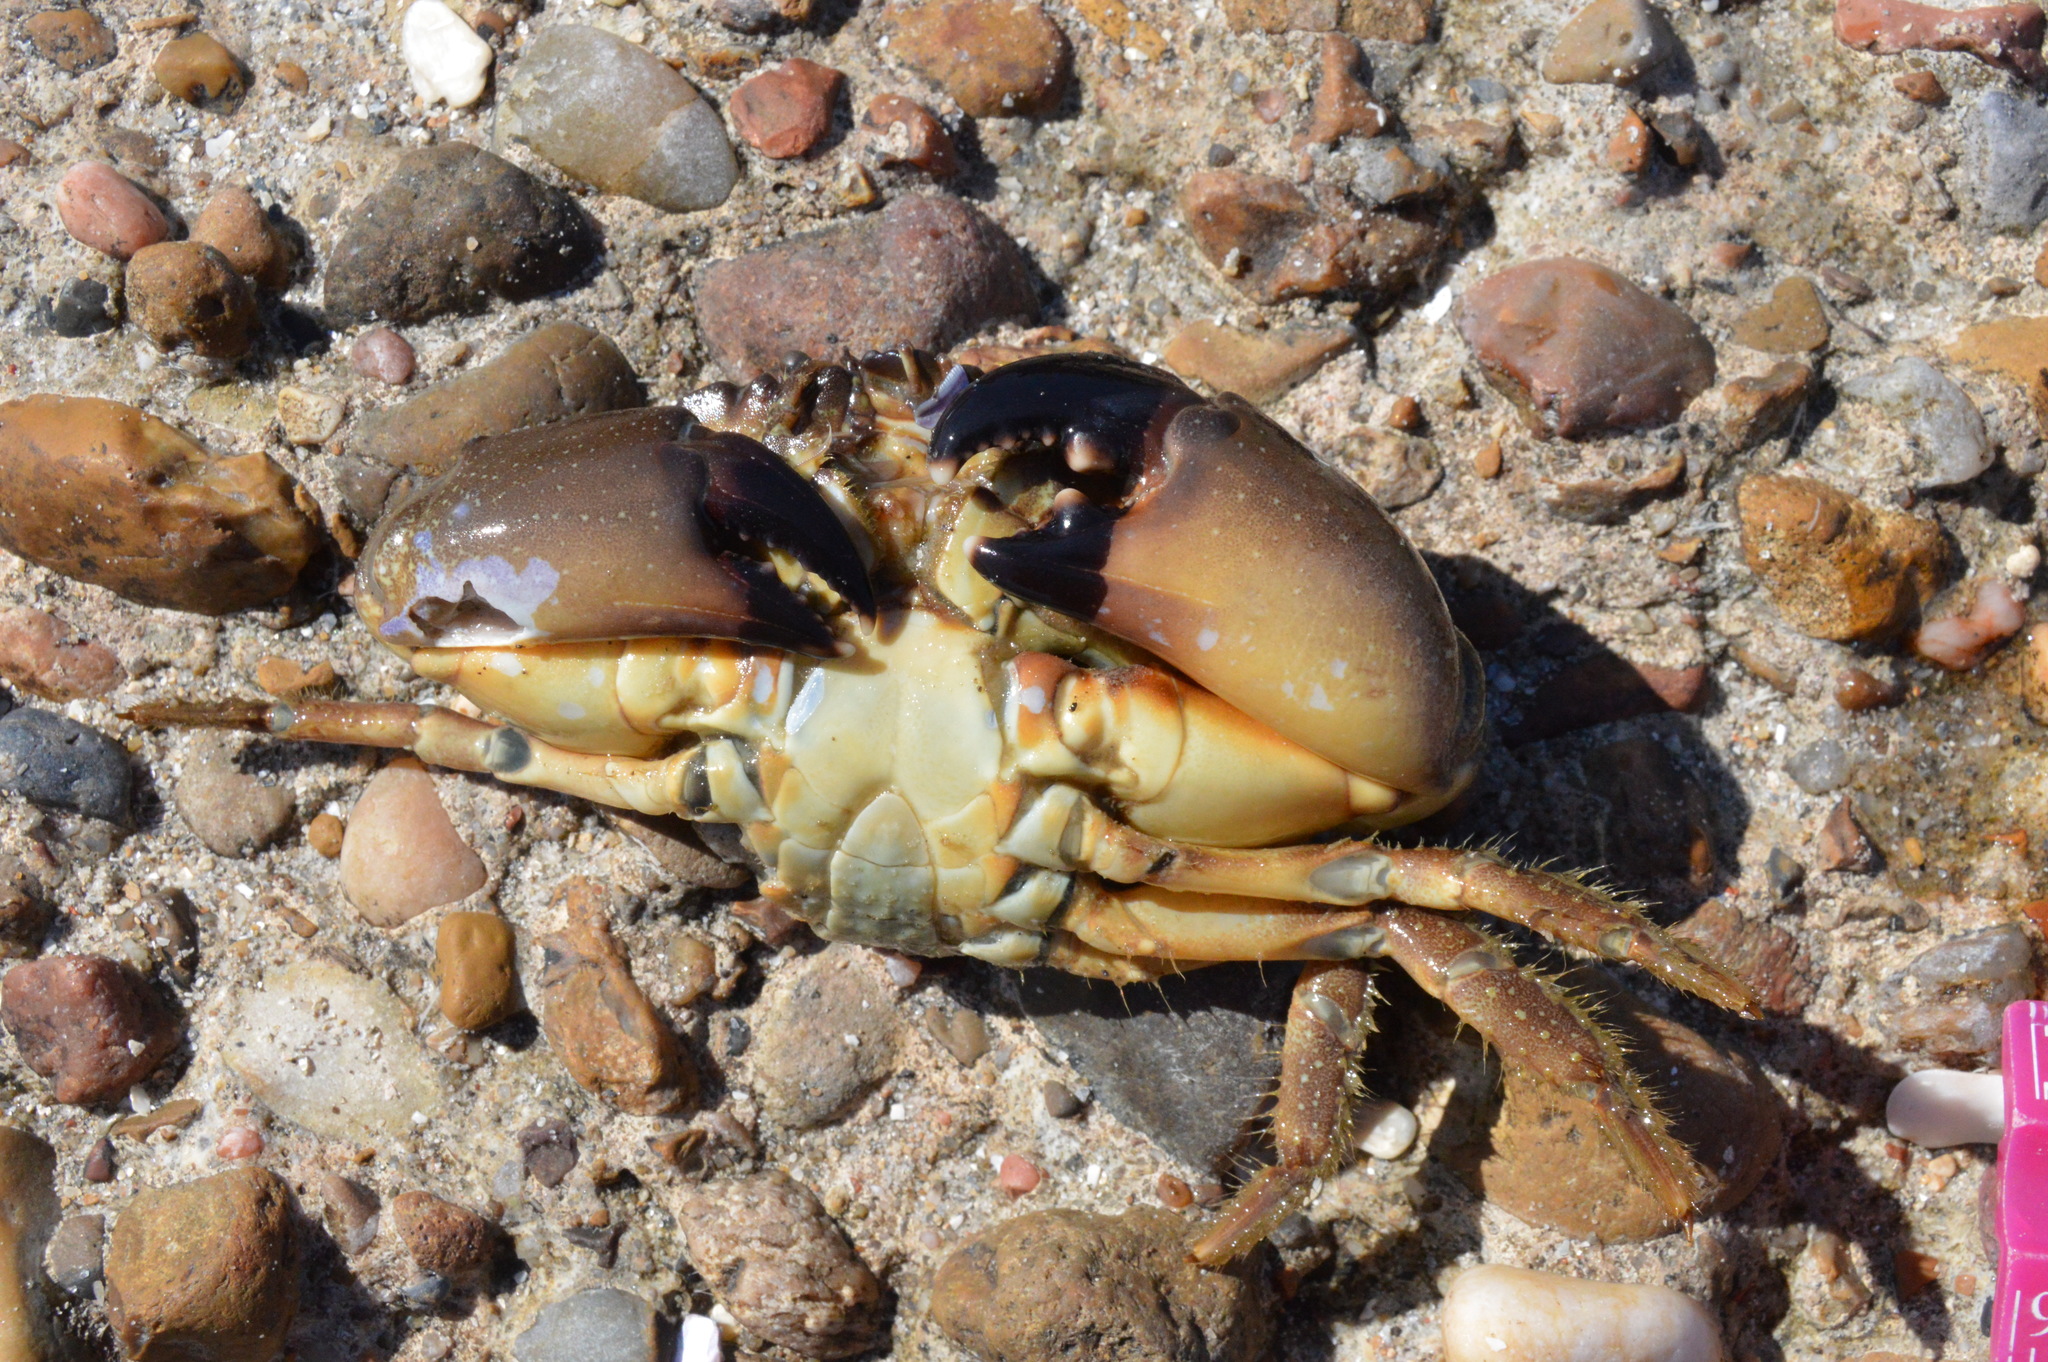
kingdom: Animalia
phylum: Arthropoda
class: Malacostraca
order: Decapoda
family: Menippidae
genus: Menippe
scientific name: Menippe adina
